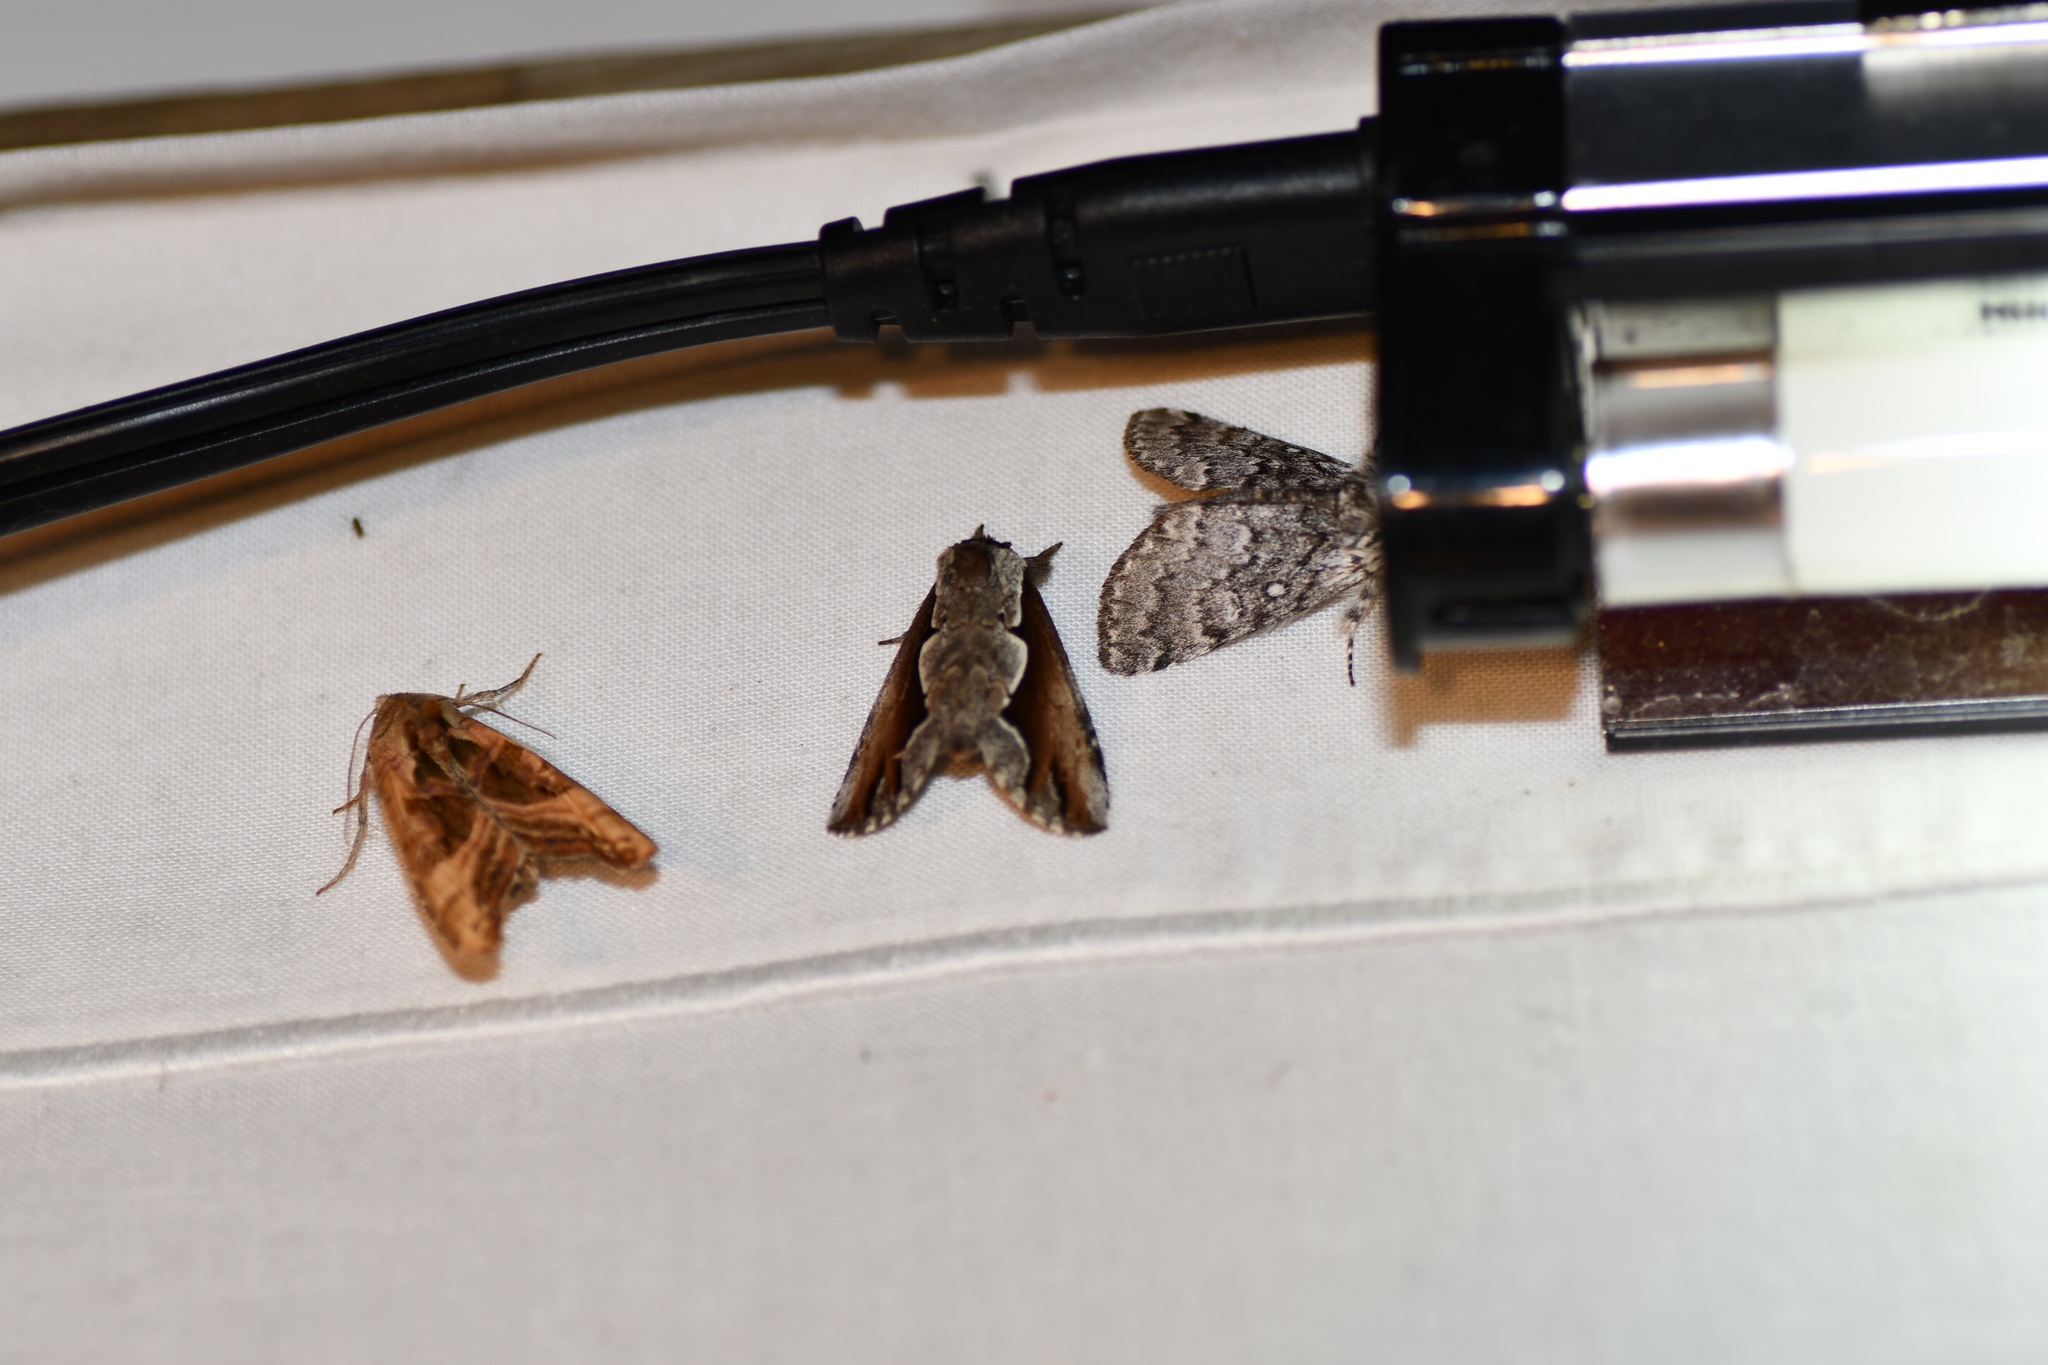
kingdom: Animalia
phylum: Arthropoda
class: Insecta
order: Lepidoptera
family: Notodontidae
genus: Nerice
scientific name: Nerice bidentata
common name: Double-toothed prominent
